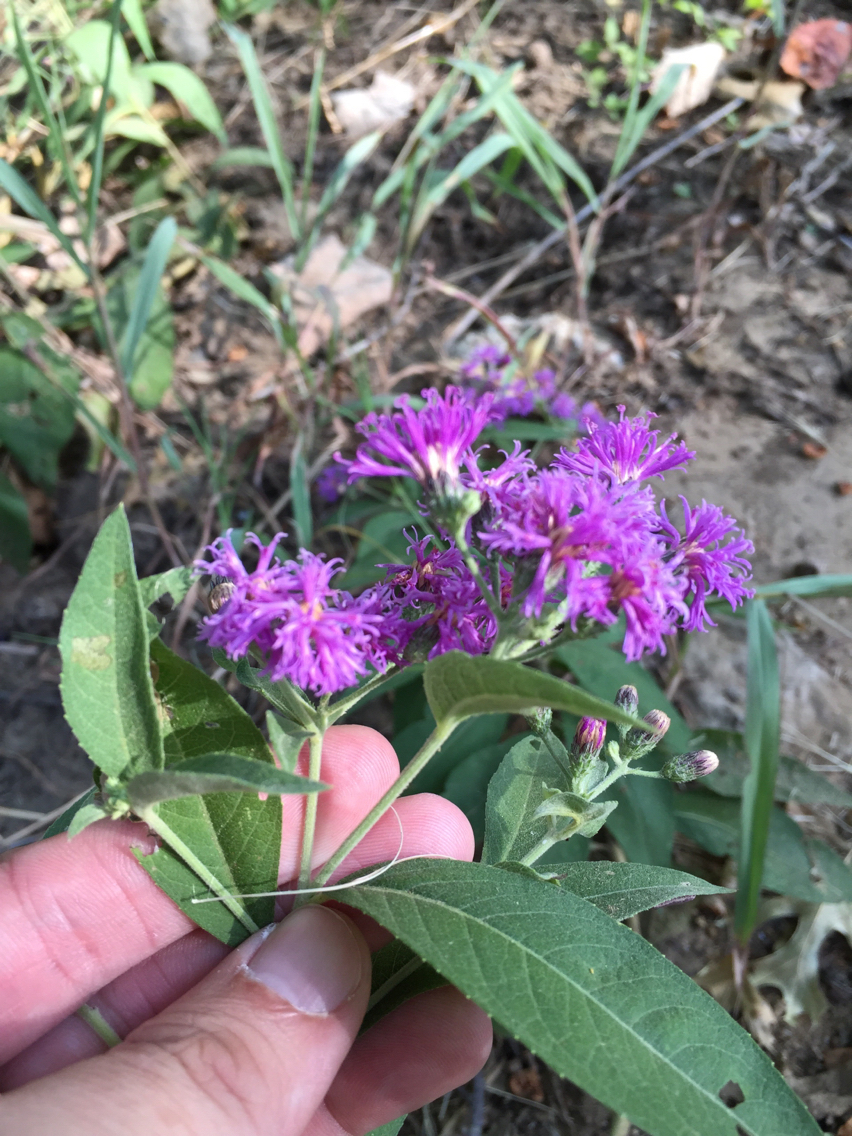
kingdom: Plantae
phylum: Tracheophyta
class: Magnoliopsida
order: Asterales
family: Asteraceae
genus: Vernonia
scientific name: Vernonia baldwinii
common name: Western ironweed
